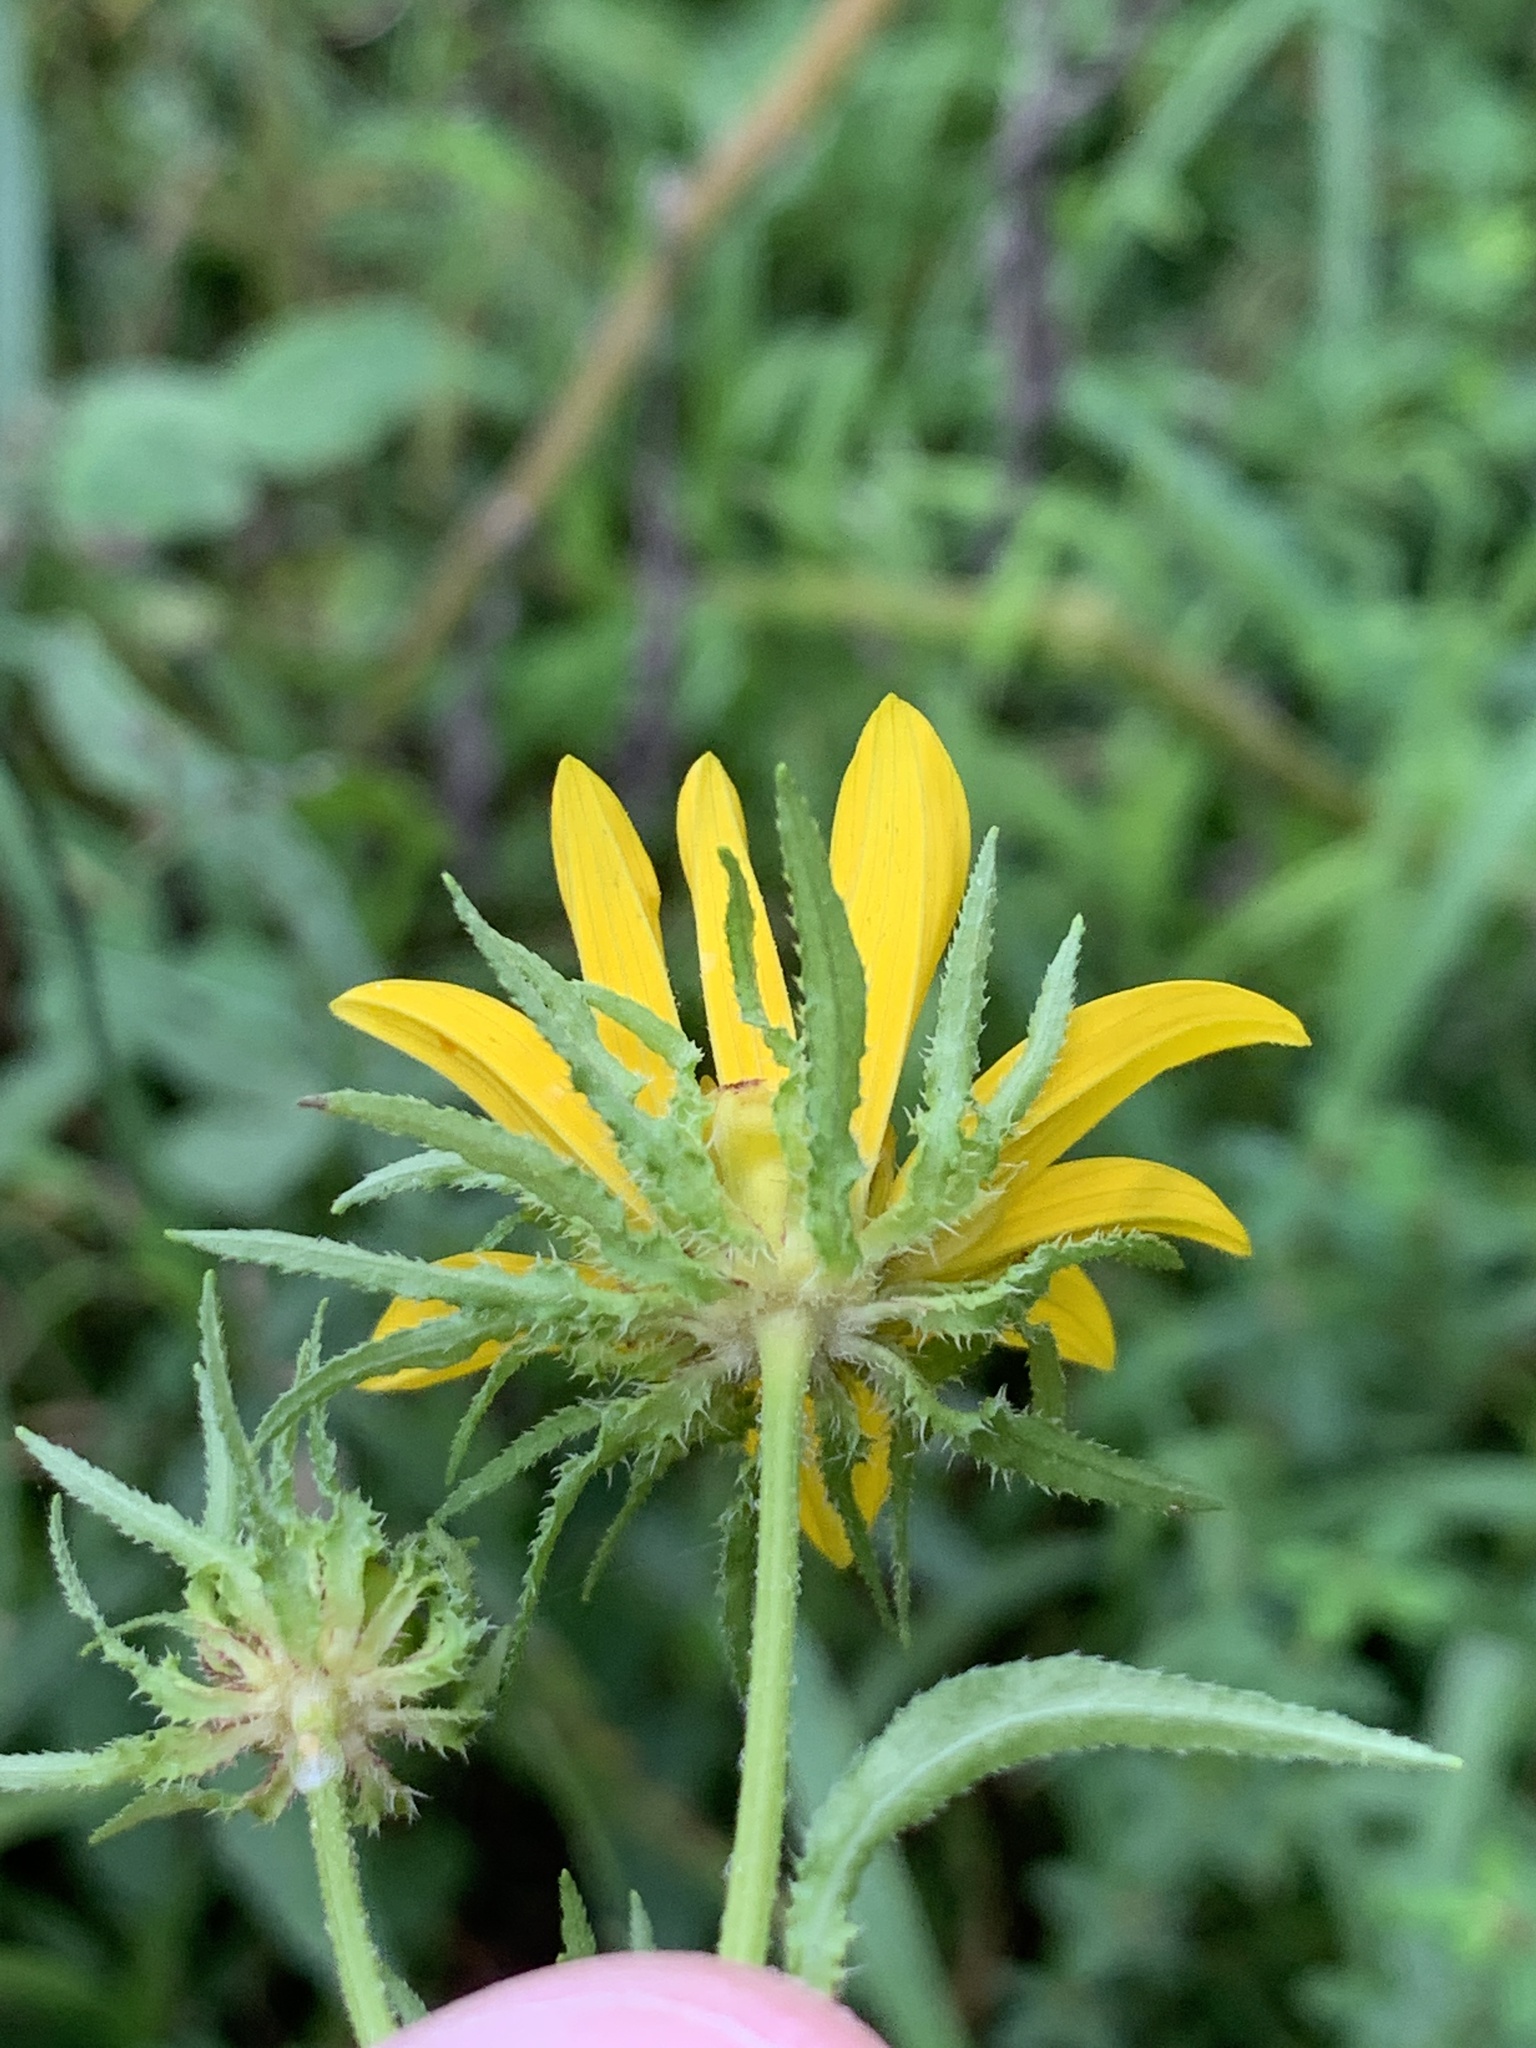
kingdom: Plantae
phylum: Tracheophyta
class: Magnoliopsida
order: Asterales
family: Asteraceae
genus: Bidens
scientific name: Bidens polylepis
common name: Awnless beggarticks
